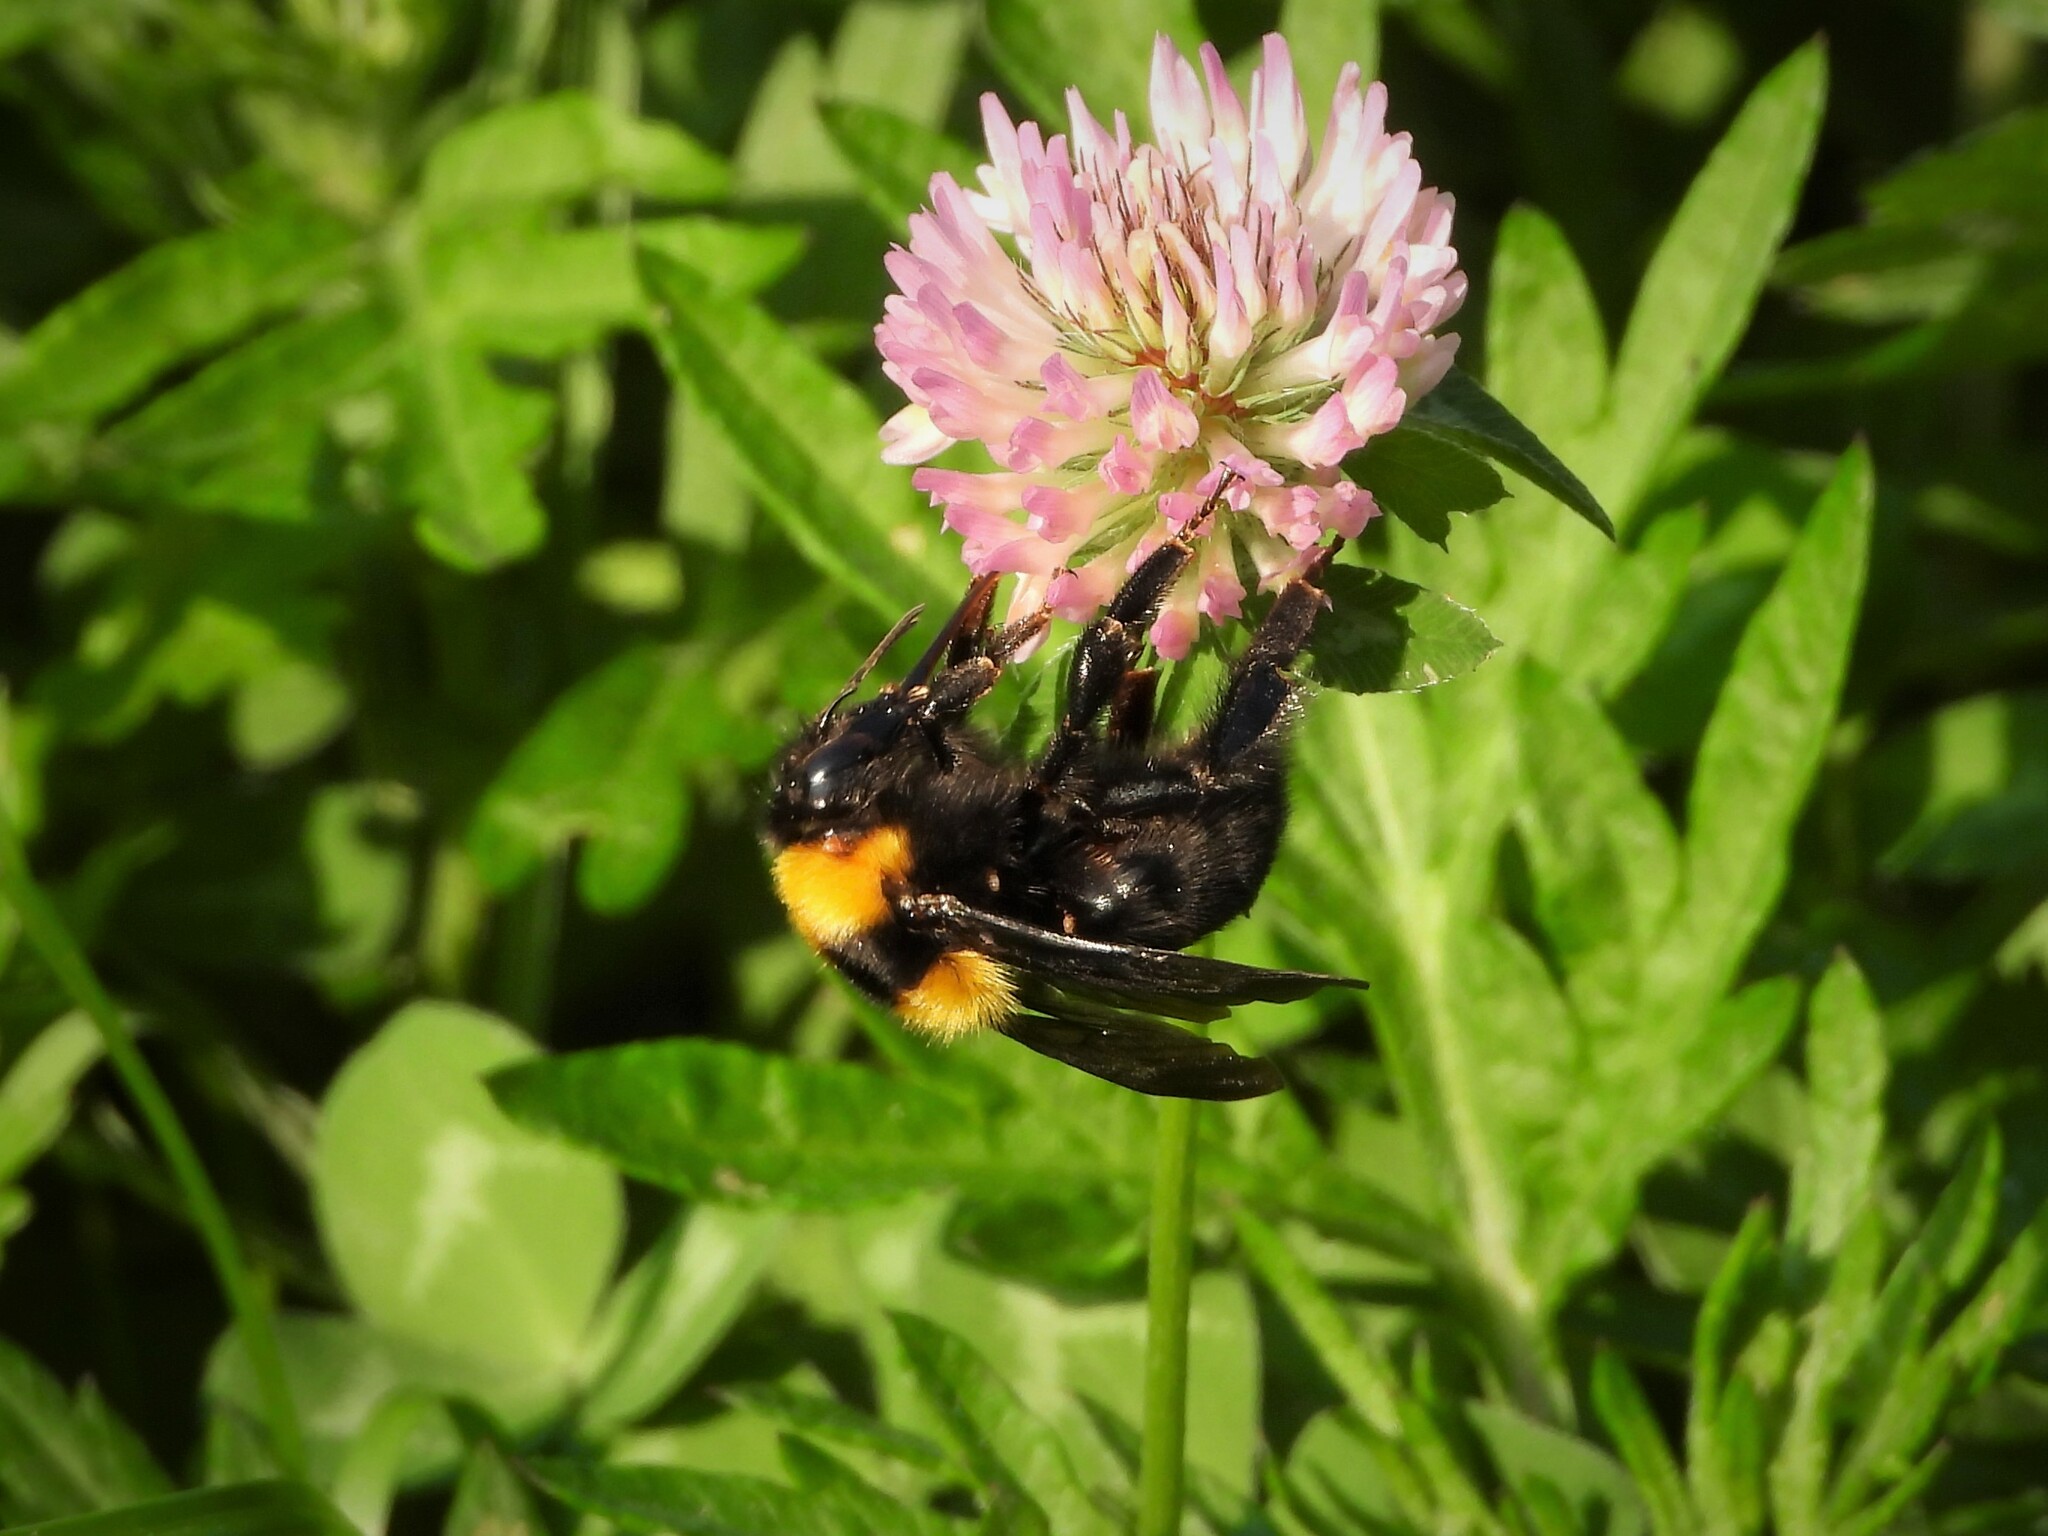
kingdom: Animalia
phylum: Arthropoda
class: Insecta
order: Hymenoptera
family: Apidae
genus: Bombus
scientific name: Bombus argillaceus
